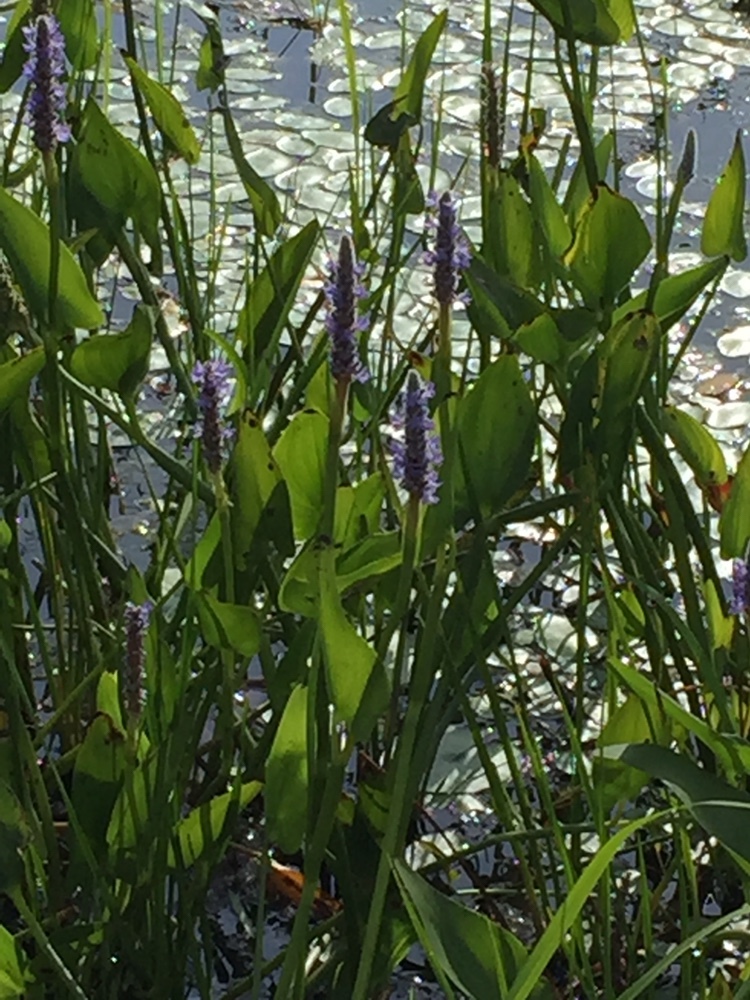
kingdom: Plantae
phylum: Tracheophyta
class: Liliopsida
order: Commelinales
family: Pontederiaceae
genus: Pontederia
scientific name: Pontederia cordata
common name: Pickerelweed
